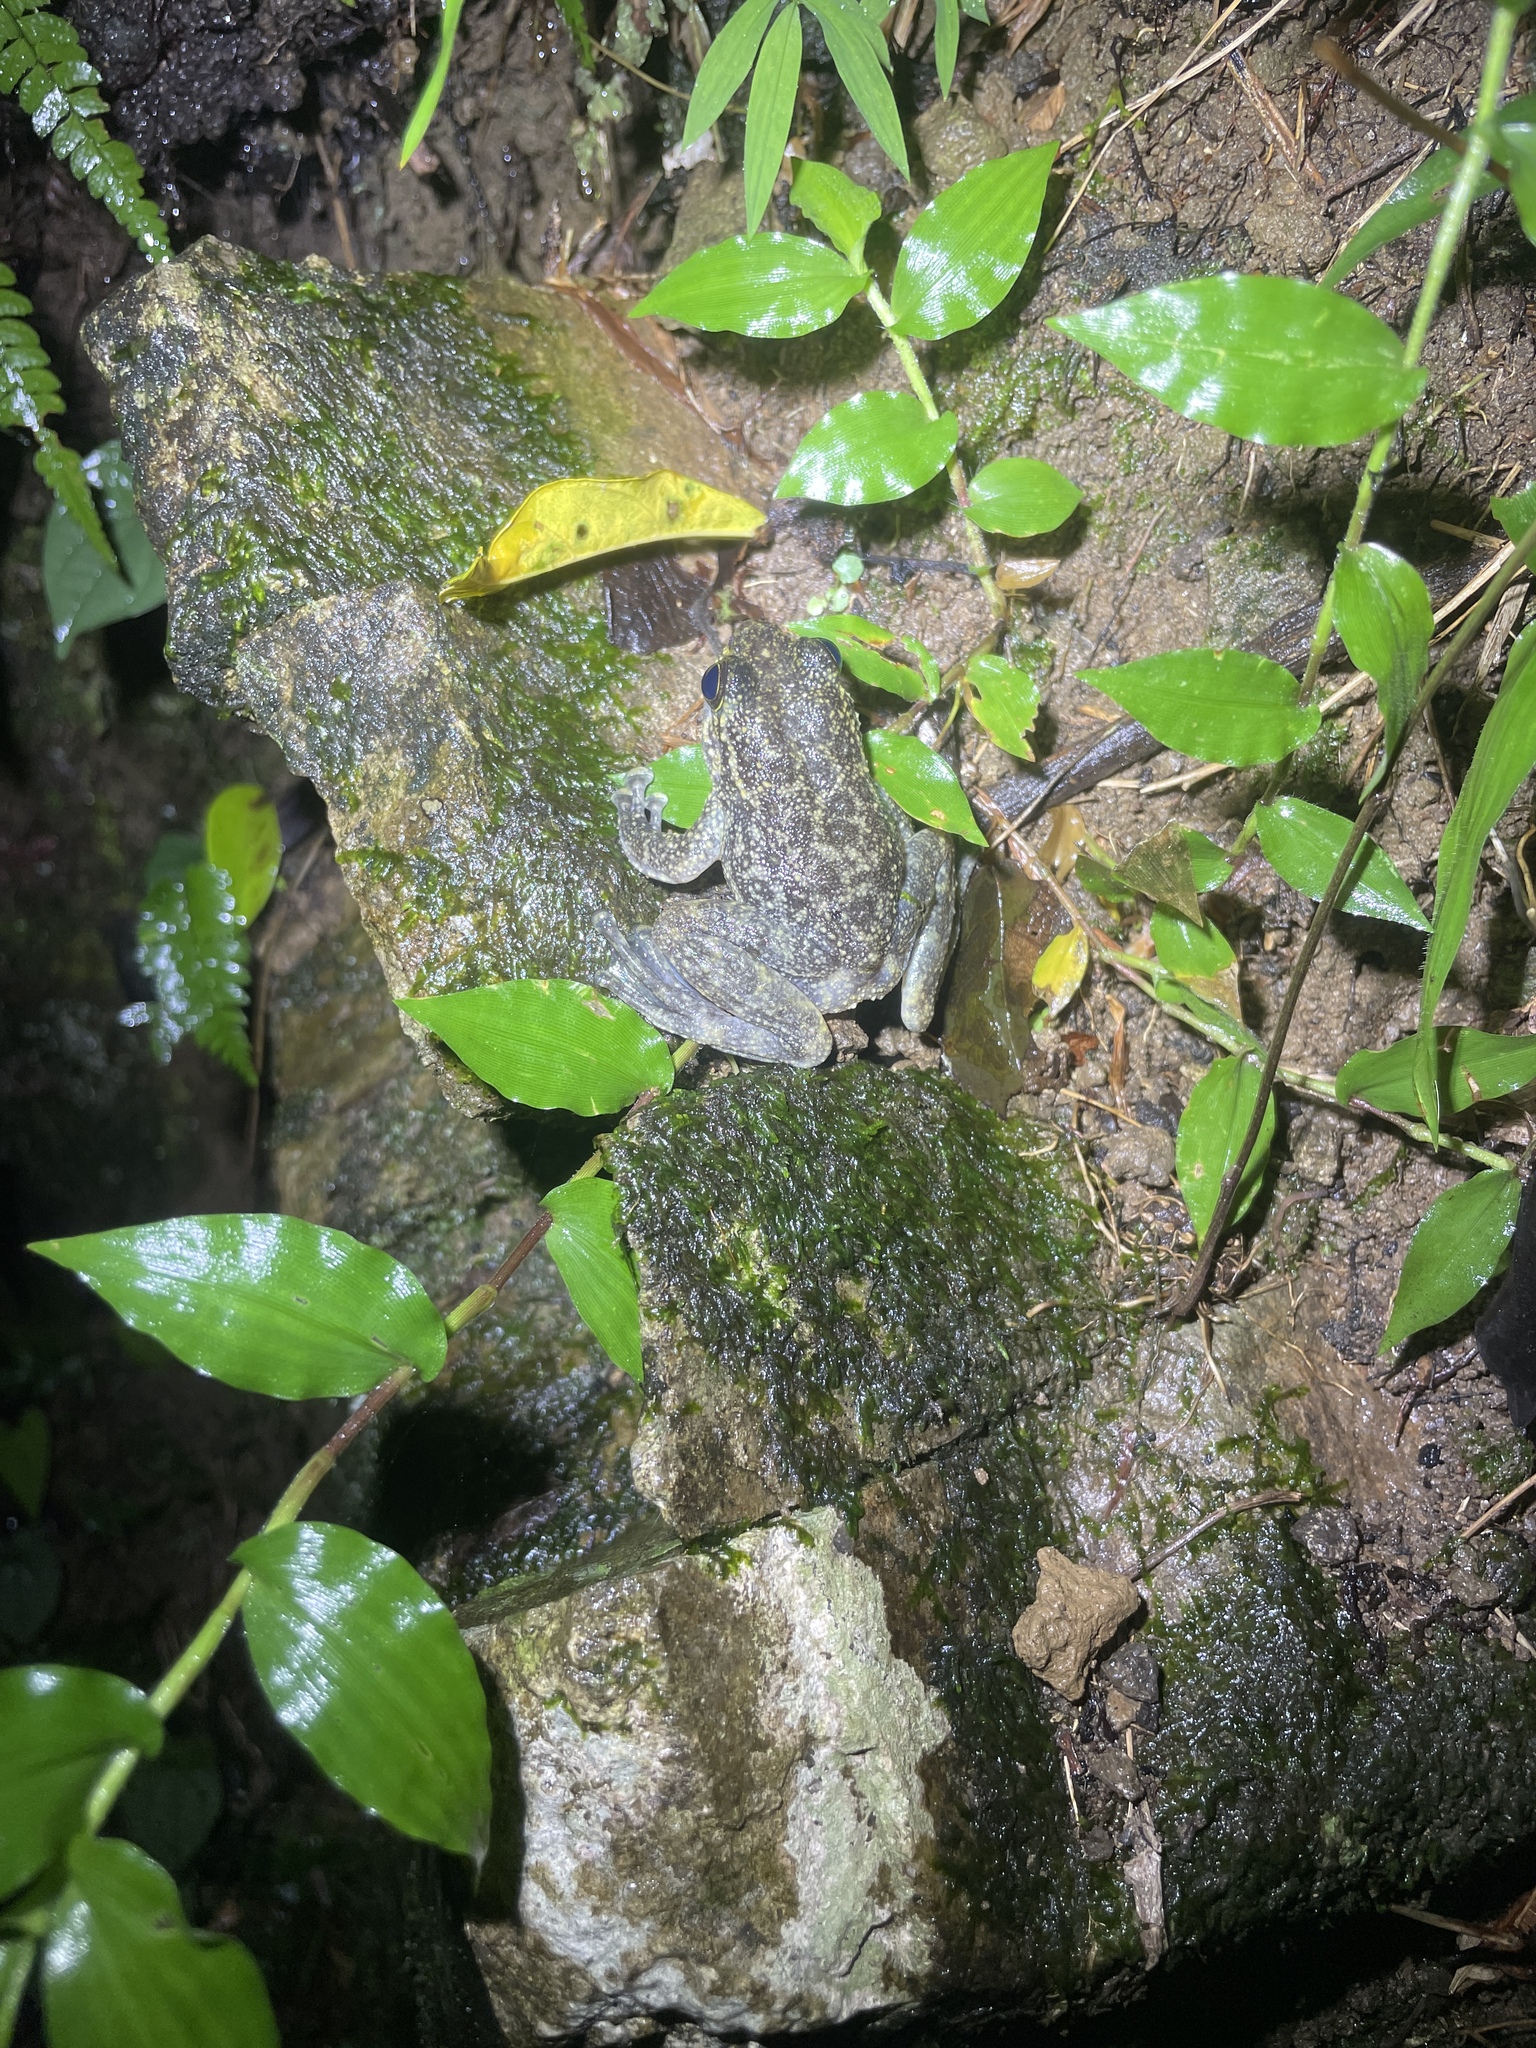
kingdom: Animalia
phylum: Chordata
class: Amphibia
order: Anura
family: Ranidae
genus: Amolops
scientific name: Amolops hongkongensis
